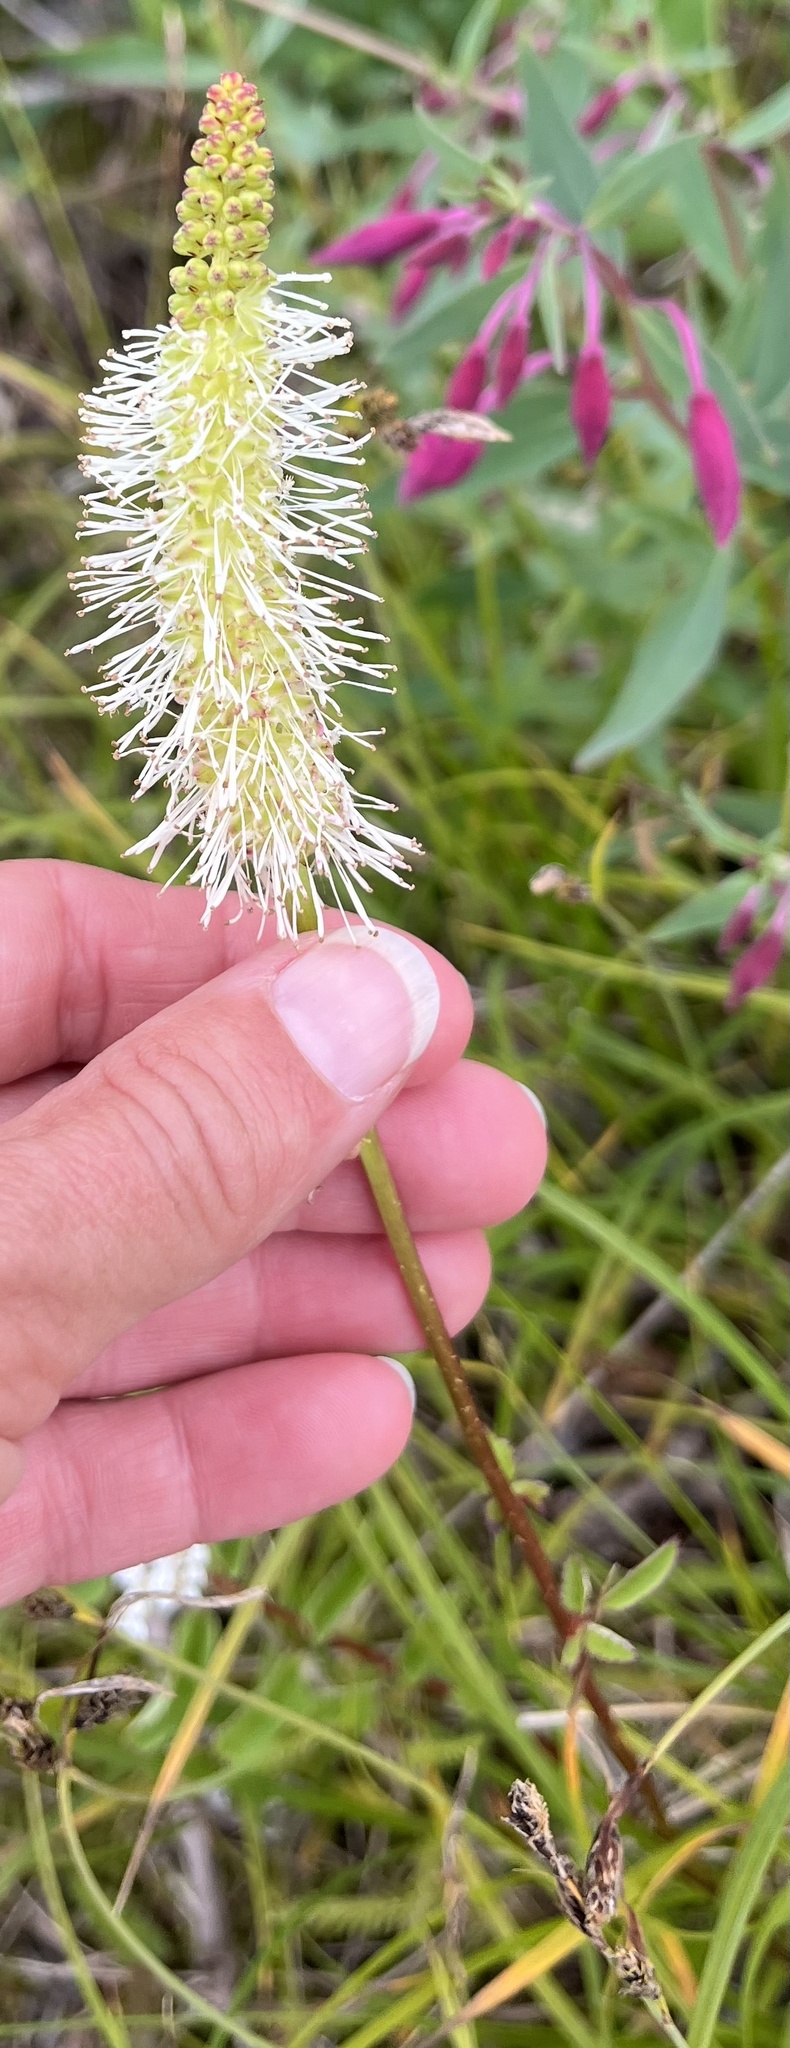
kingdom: Plantae
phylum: Tracheophyta
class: Magnoliopsida
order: Rosales
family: Rosaceae
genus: Sanguisorba
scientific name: Sanguisorba stipulata
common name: Sitka burnet
